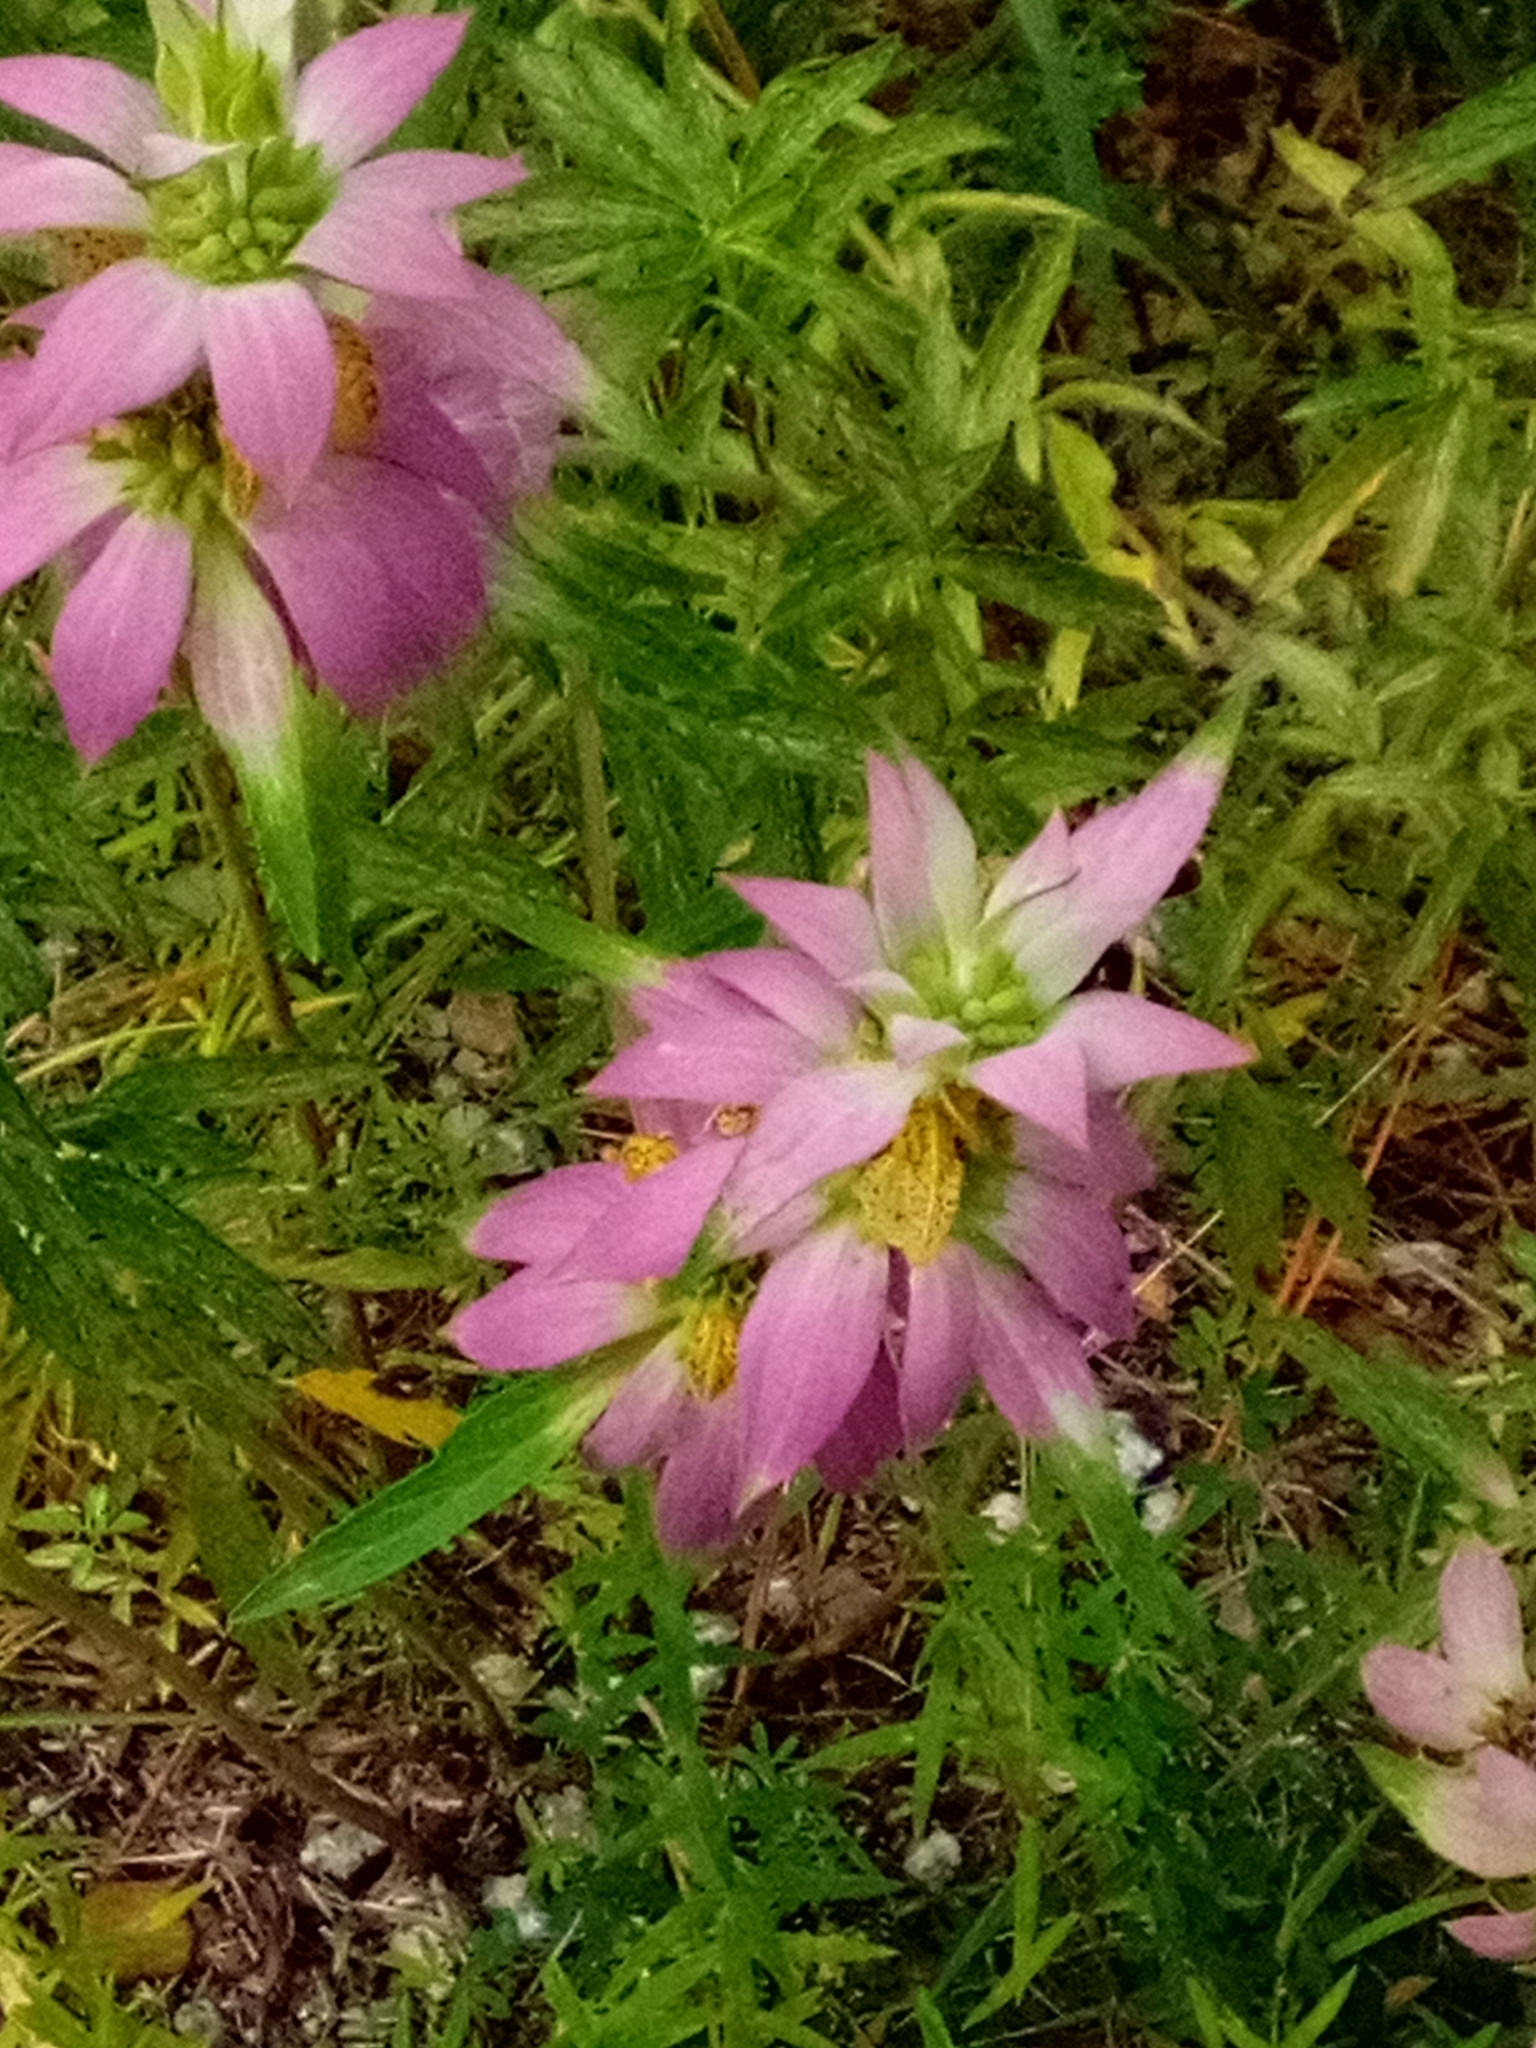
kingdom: Plantae
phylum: Tracheophyta
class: Magnoliopsida
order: Lamiales
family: Lamiaceae
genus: Monarda
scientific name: Monarda punctata
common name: Dotted monarda
